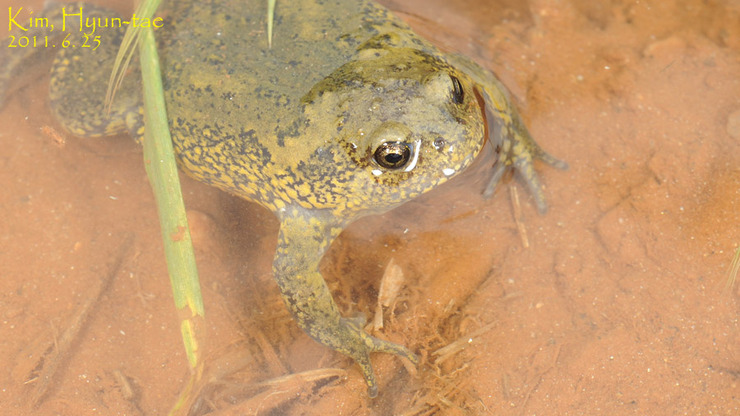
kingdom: Animalia
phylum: Chordata
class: Amphibia
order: Anura
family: Microhylidae
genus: Kaloula
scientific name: Kaloula borealis
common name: Boreal digging frog
